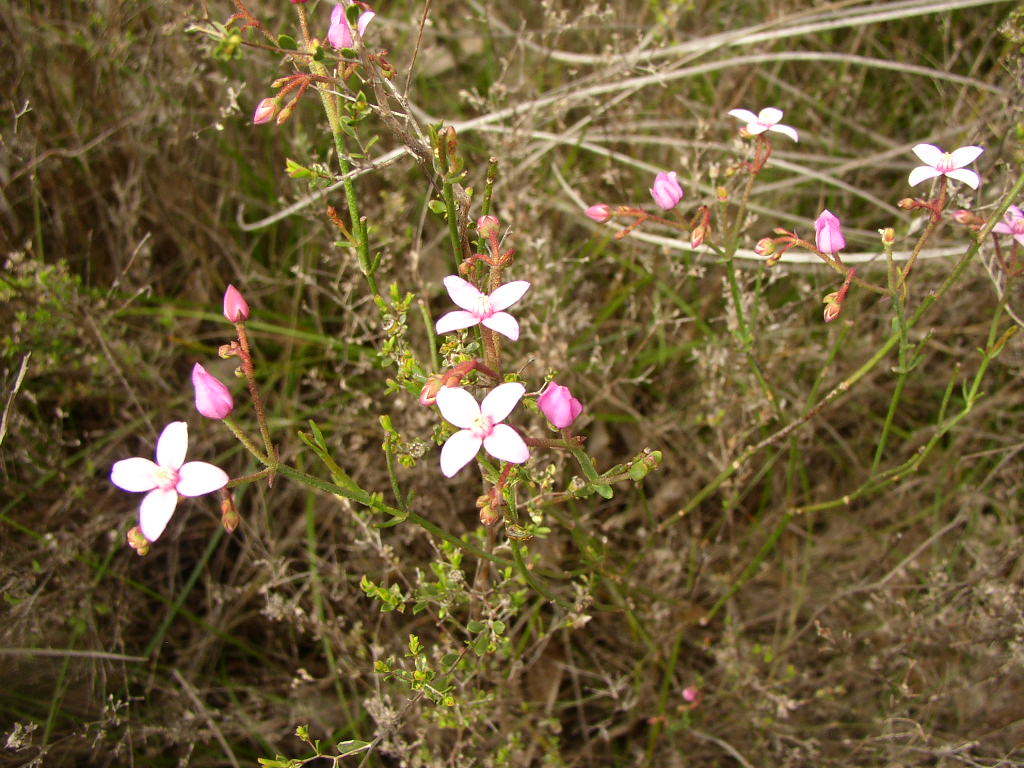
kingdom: Plantae
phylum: Tracheophyta
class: Magnoliopsida
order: Sapindales
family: Rutaceae
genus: Boronia
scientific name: Boronia dichotoma
